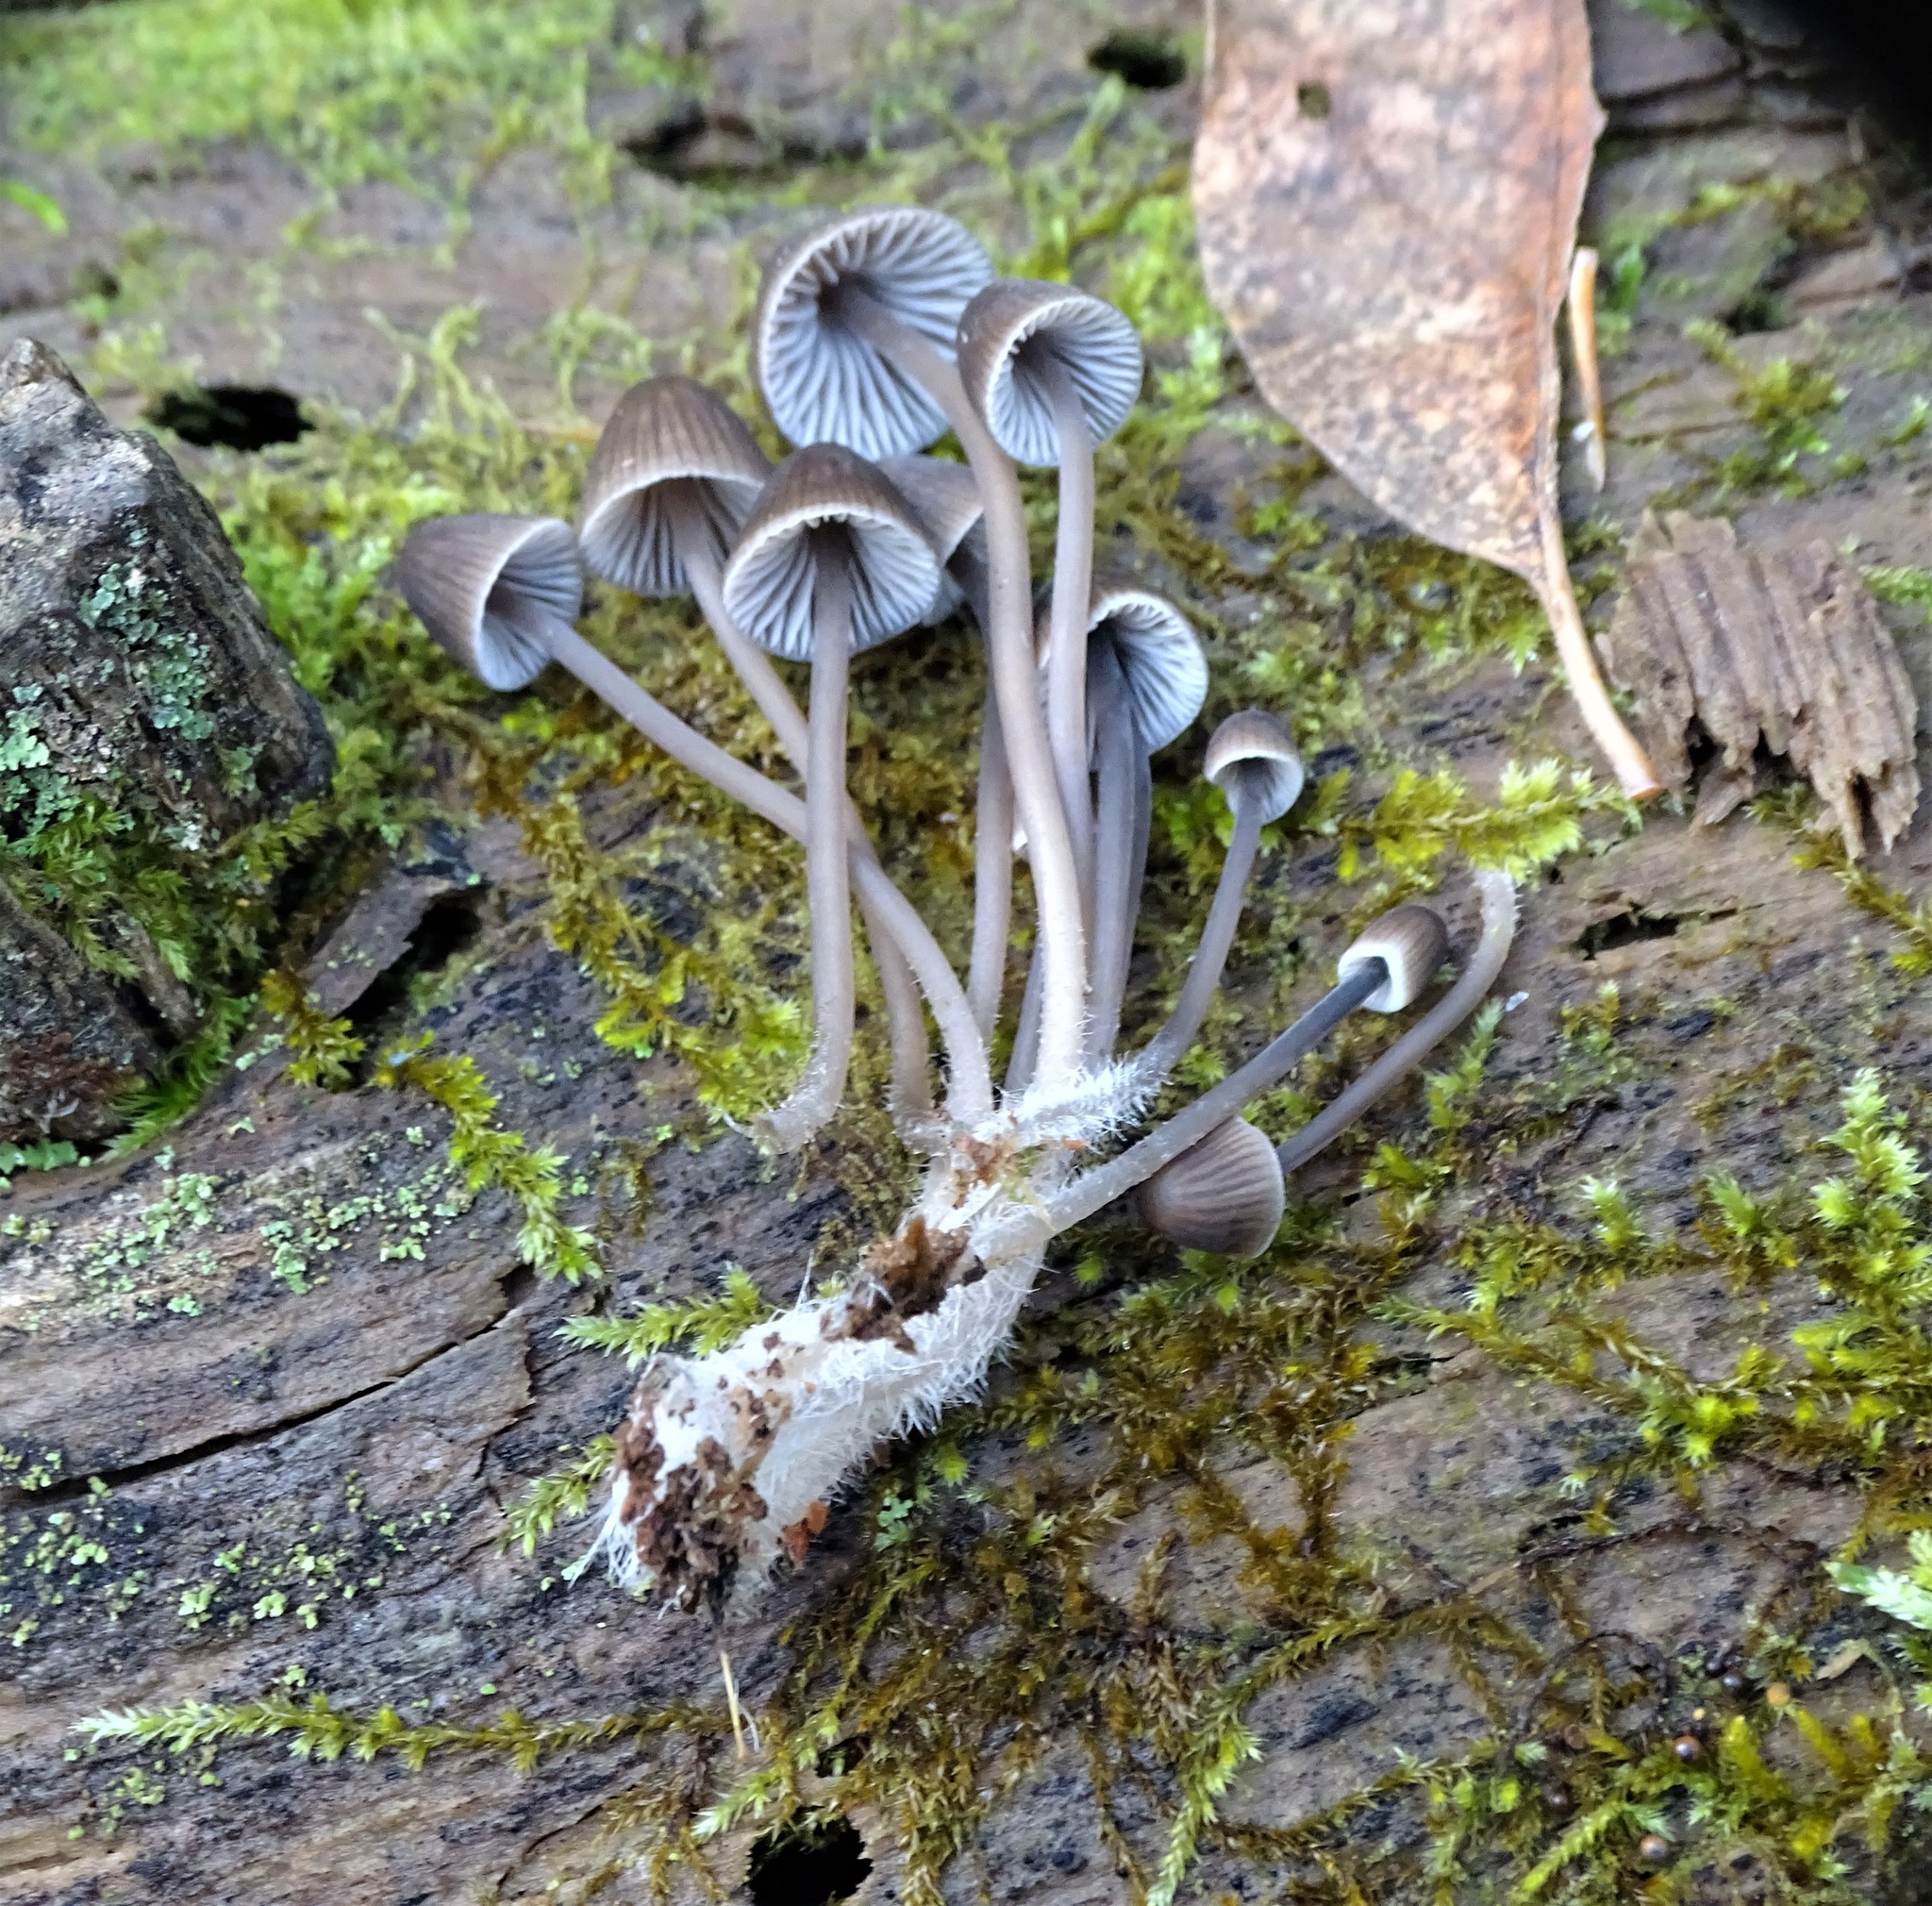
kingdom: Fungi
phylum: Basidiomycota
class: Agaricomycetes
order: Agaricales
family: Mycenaceae
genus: Mycena
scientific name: Mycena leptocephala
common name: Nitrous bonnet
